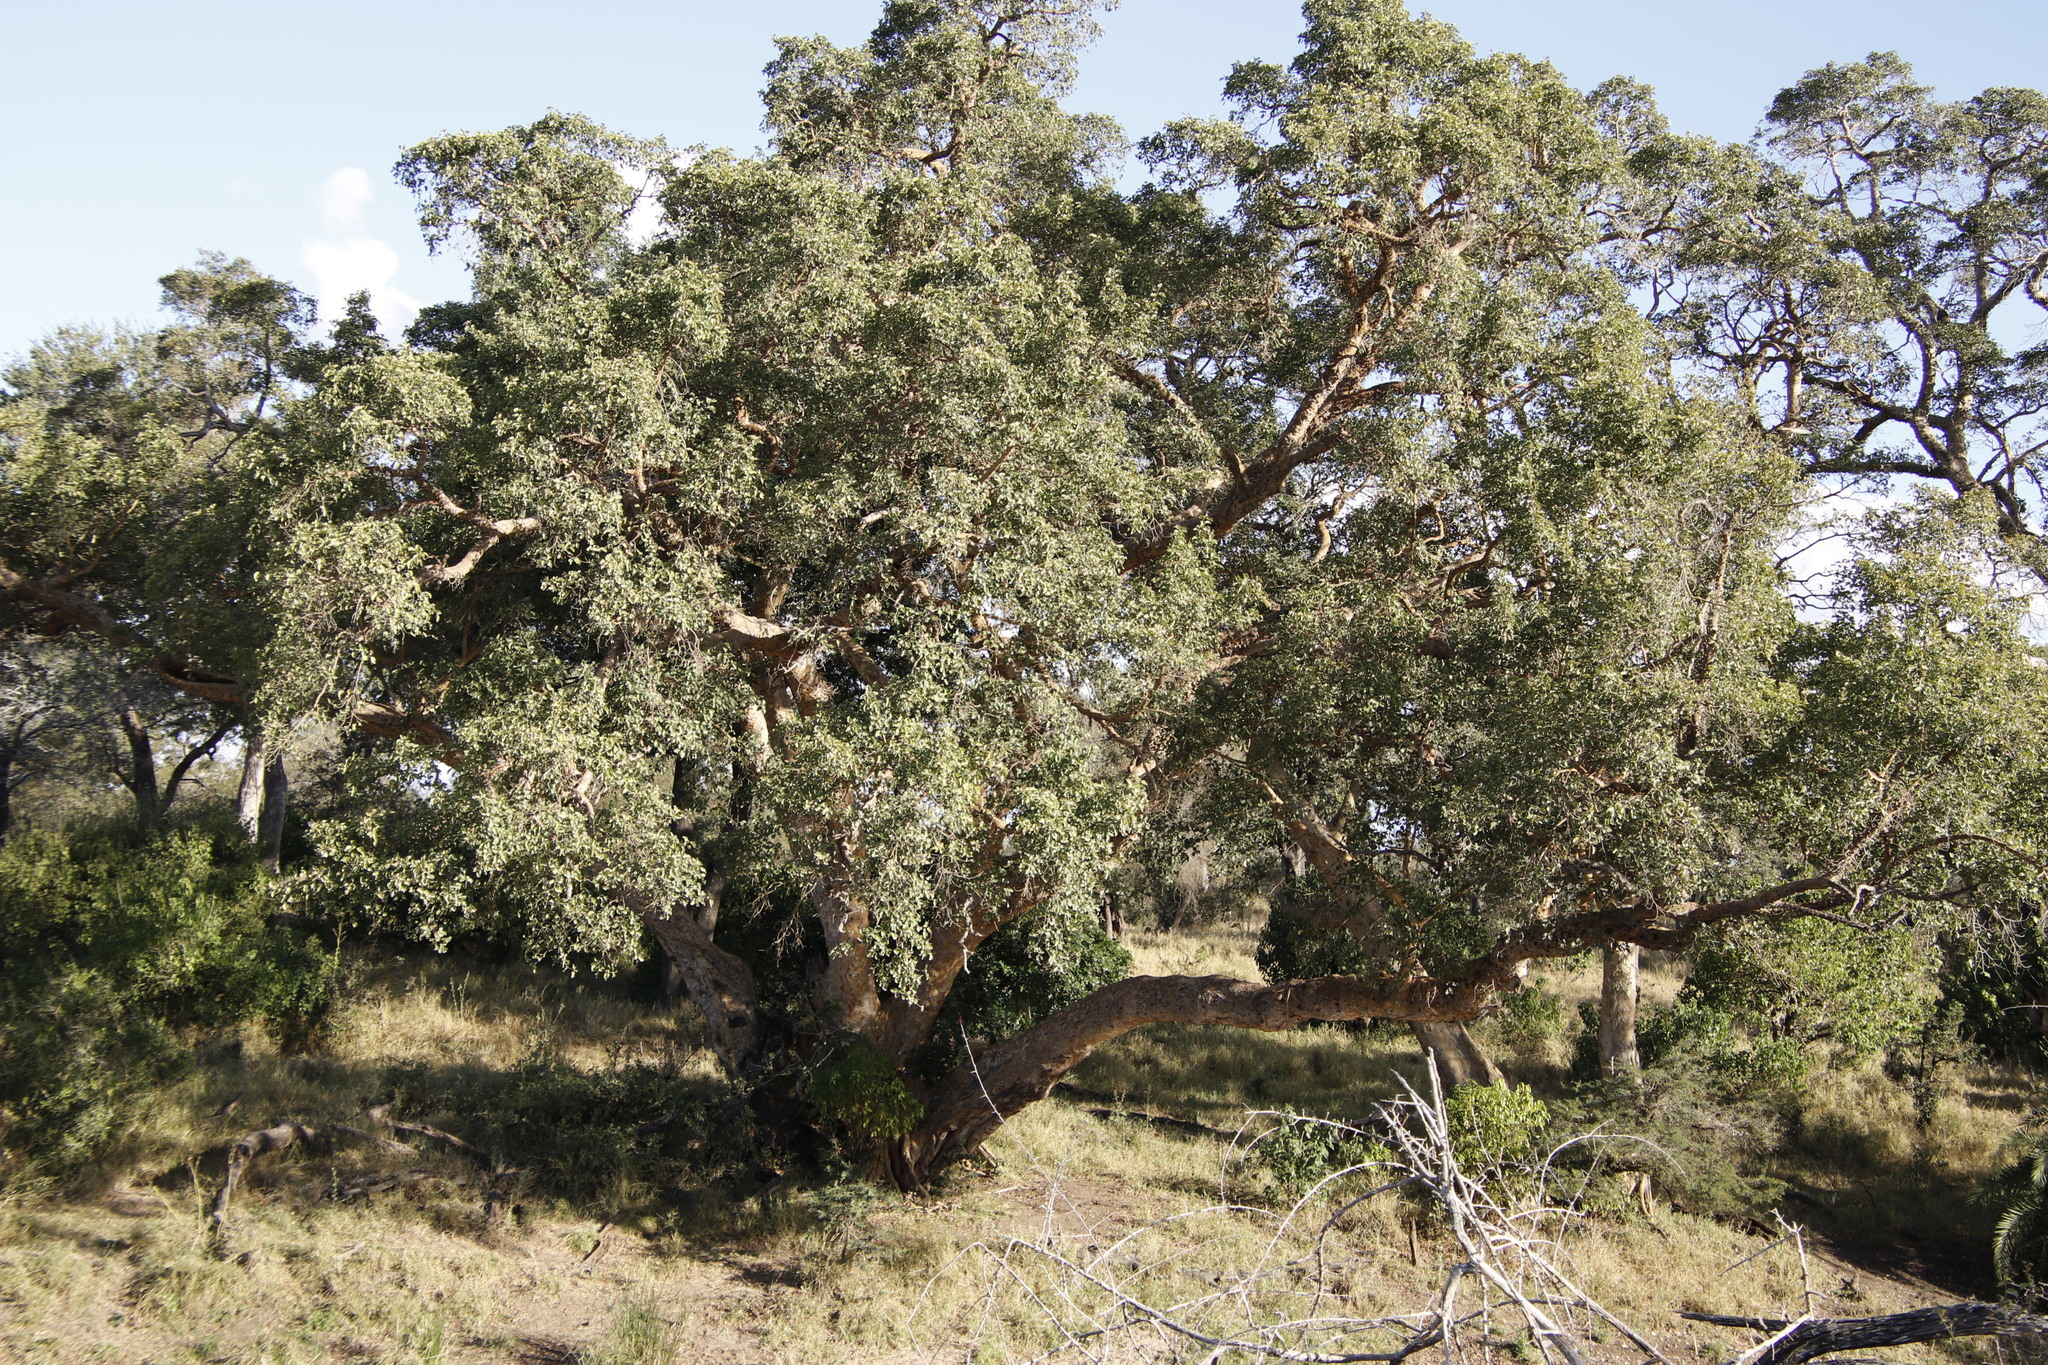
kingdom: Plantae
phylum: Tracheophyta
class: Magnoliopsida
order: Rosales
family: Moraceae
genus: Ficus
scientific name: Ficus sycomorus
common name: Sycomore
